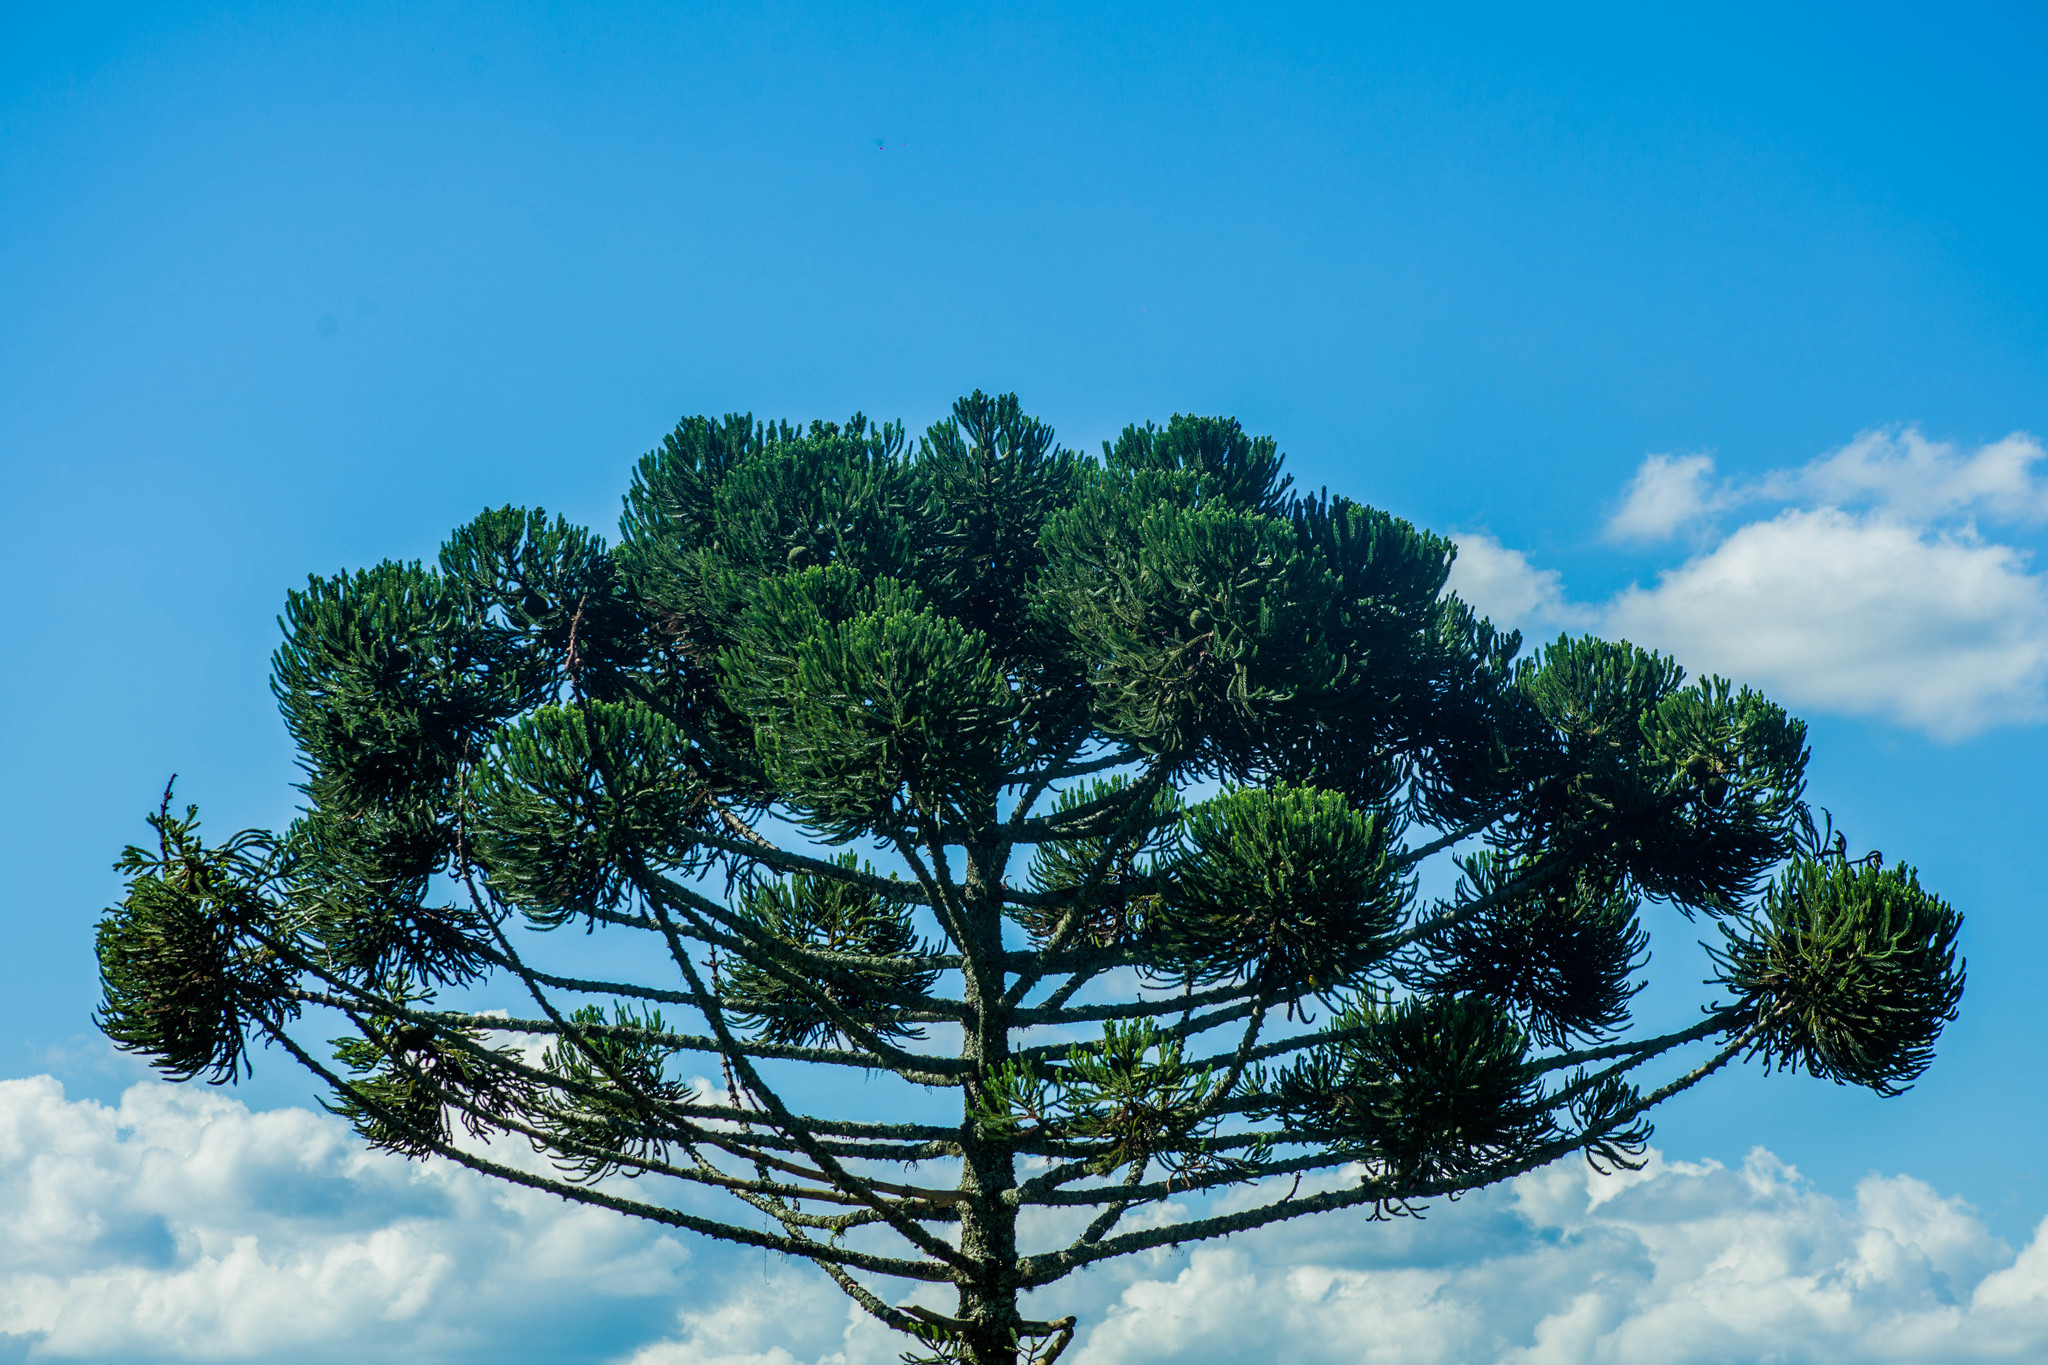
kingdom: Plantae
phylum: Tracheophyta
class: Pinopsida
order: Pinales
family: Araucariaceae
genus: Araucaria
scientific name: Araucaria angustifolia
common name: Candelabra tree
